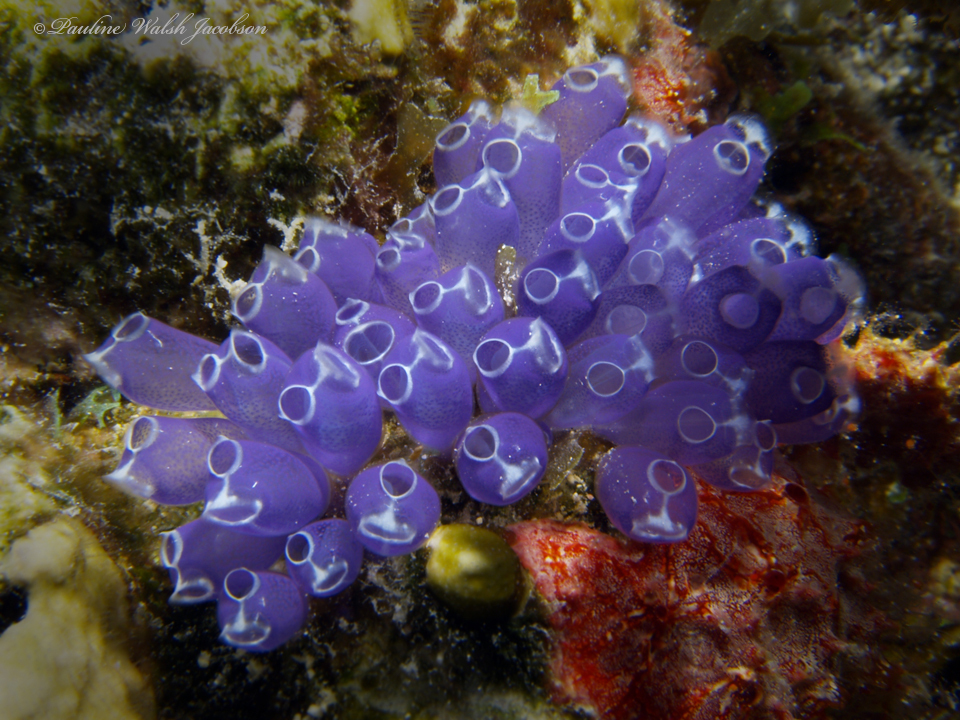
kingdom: Animalia
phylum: Chordata
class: Ascidiacea
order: Aplousobranchia
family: Clavelinidae
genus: Clavelina
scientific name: Clavelina puertosecensis
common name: Blue bell tunicate
